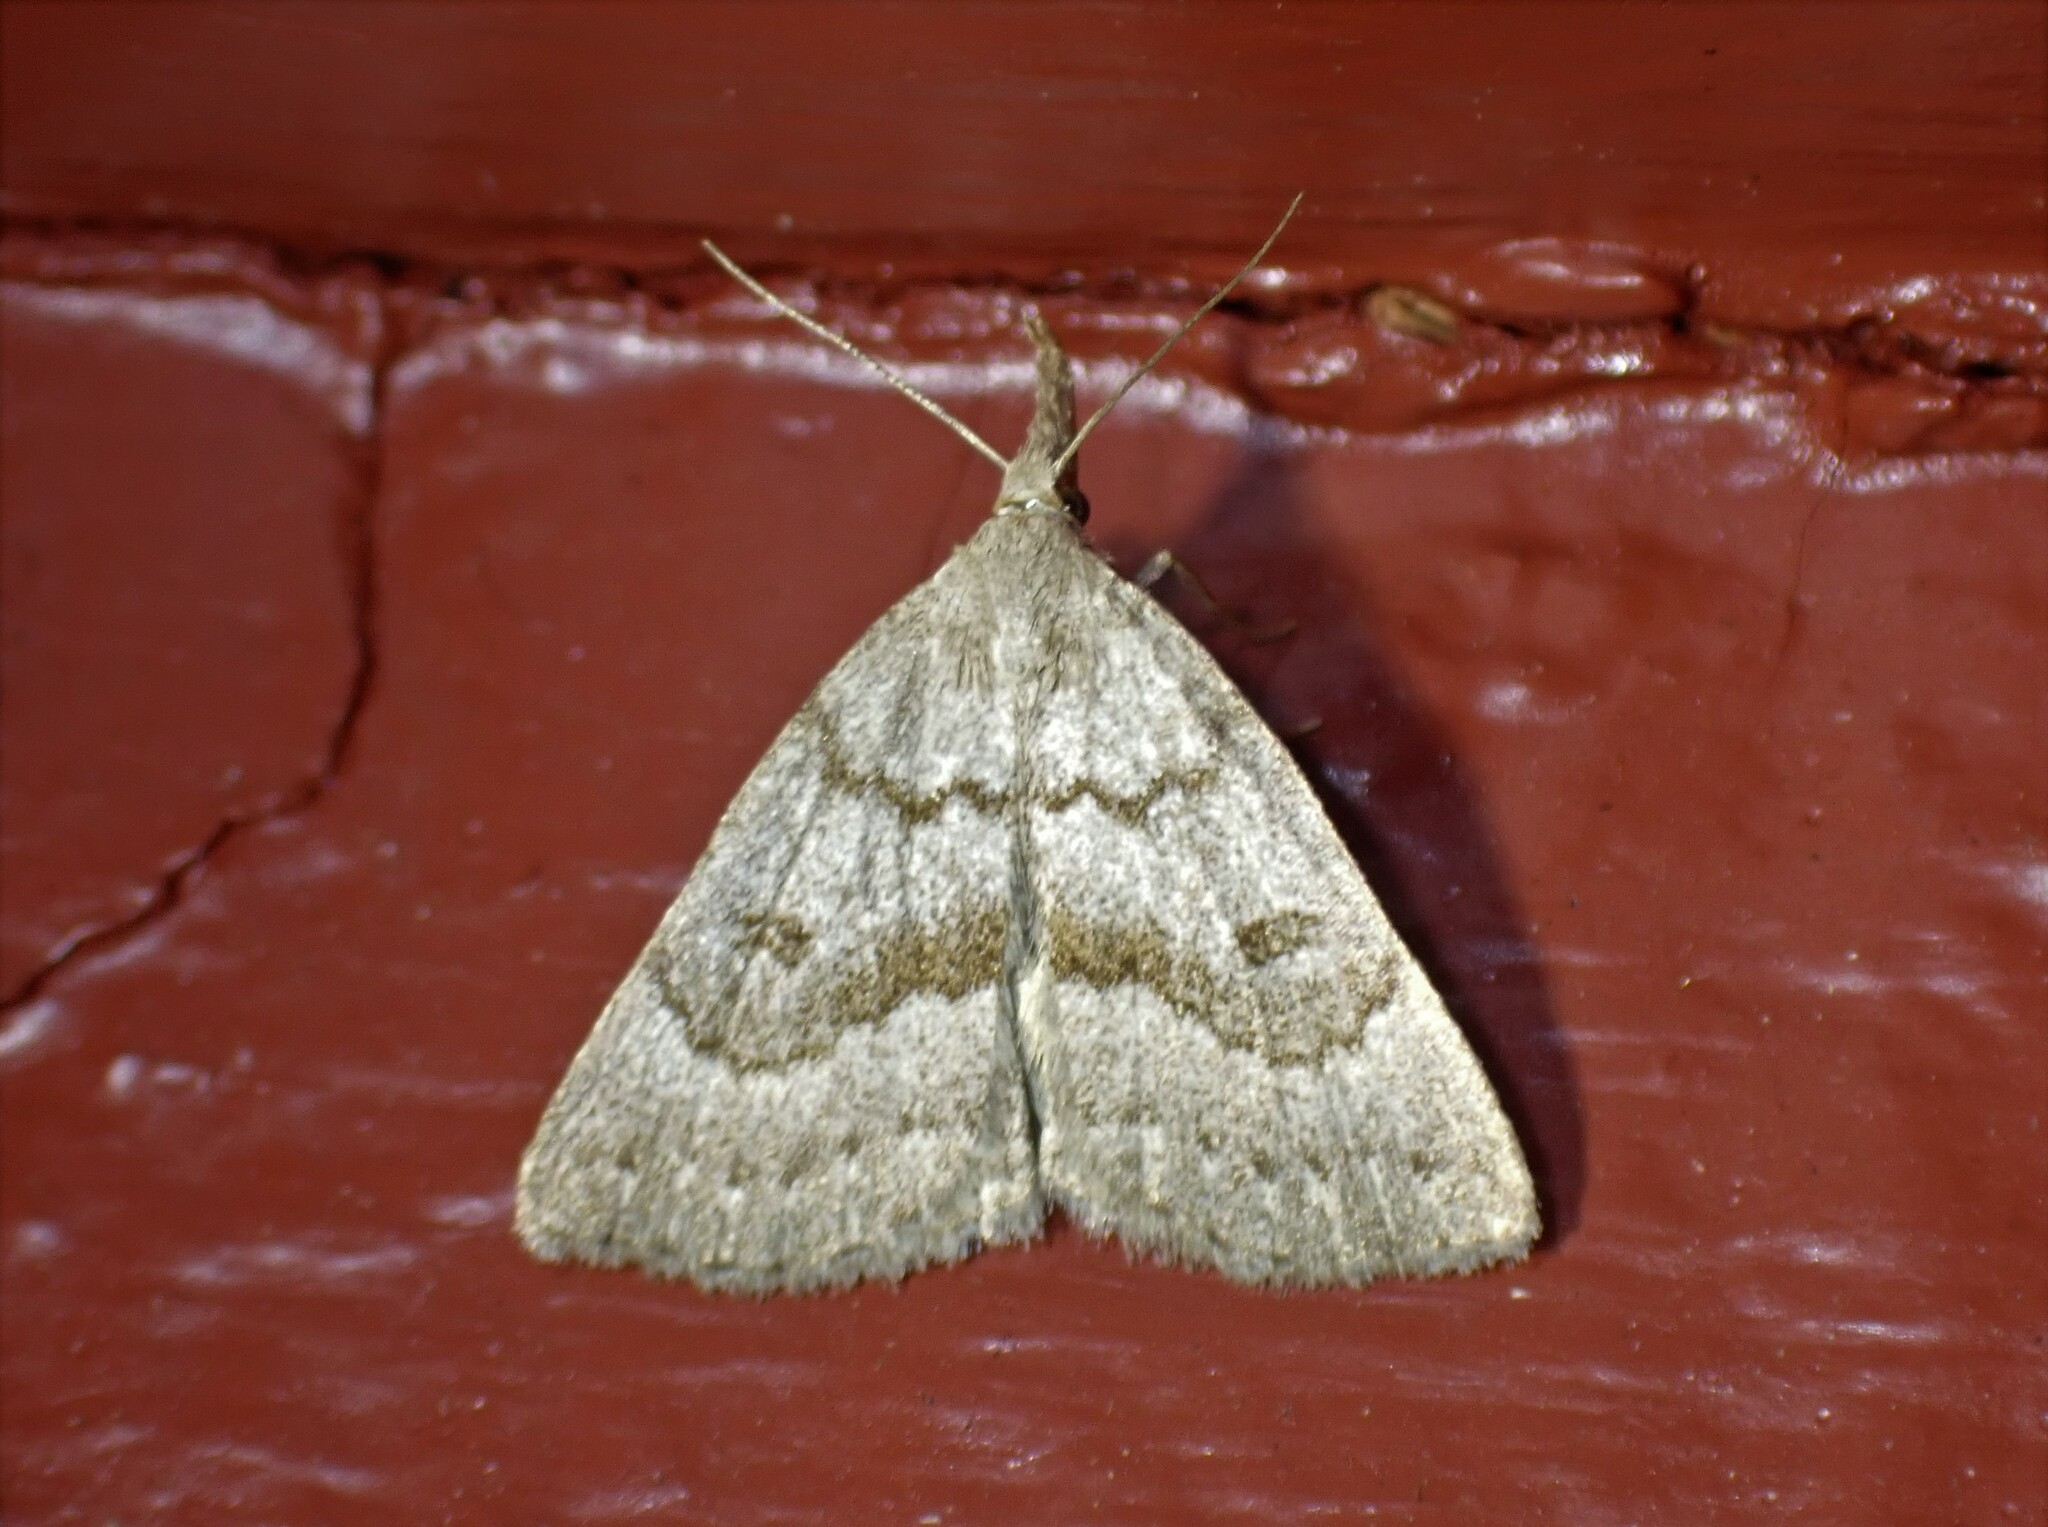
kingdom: Animalia
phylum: Arthropoda
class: Insecta
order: Lepidoptera
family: Erebidae
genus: Macrochilo
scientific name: Macrochilo morbidalis
